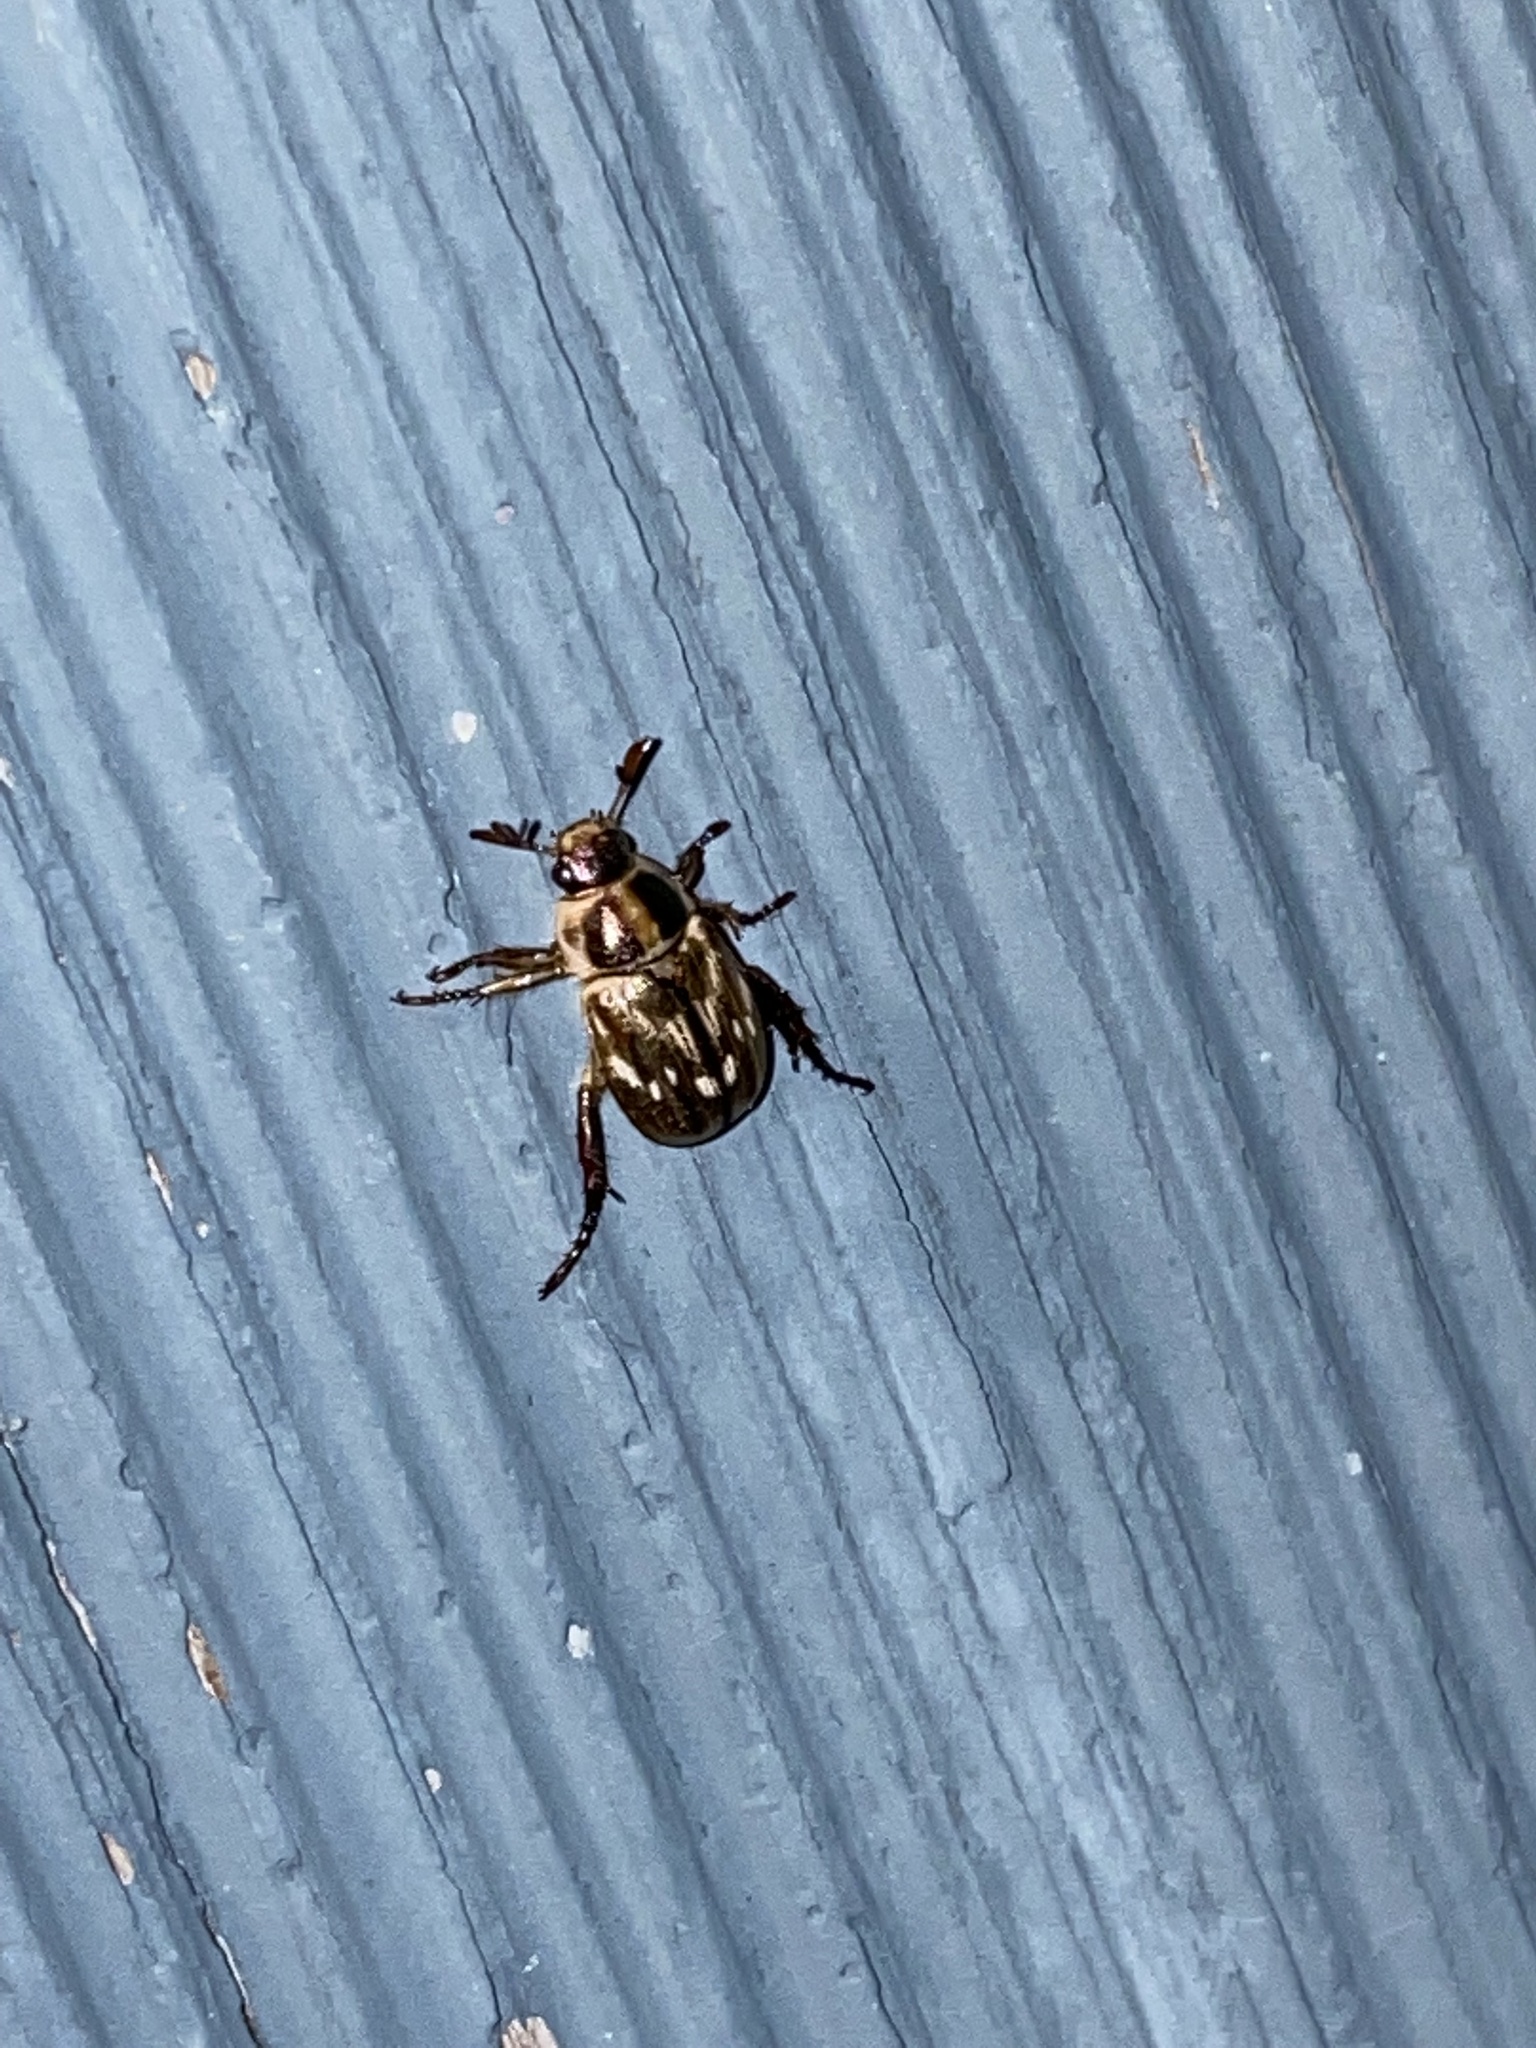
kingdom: Animalia
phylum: Arthropoda
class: Insecta
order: Coleoptera
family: Scarabaeidae
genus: Exomala
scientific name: Exomala orientalis
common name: Oriental beetle
